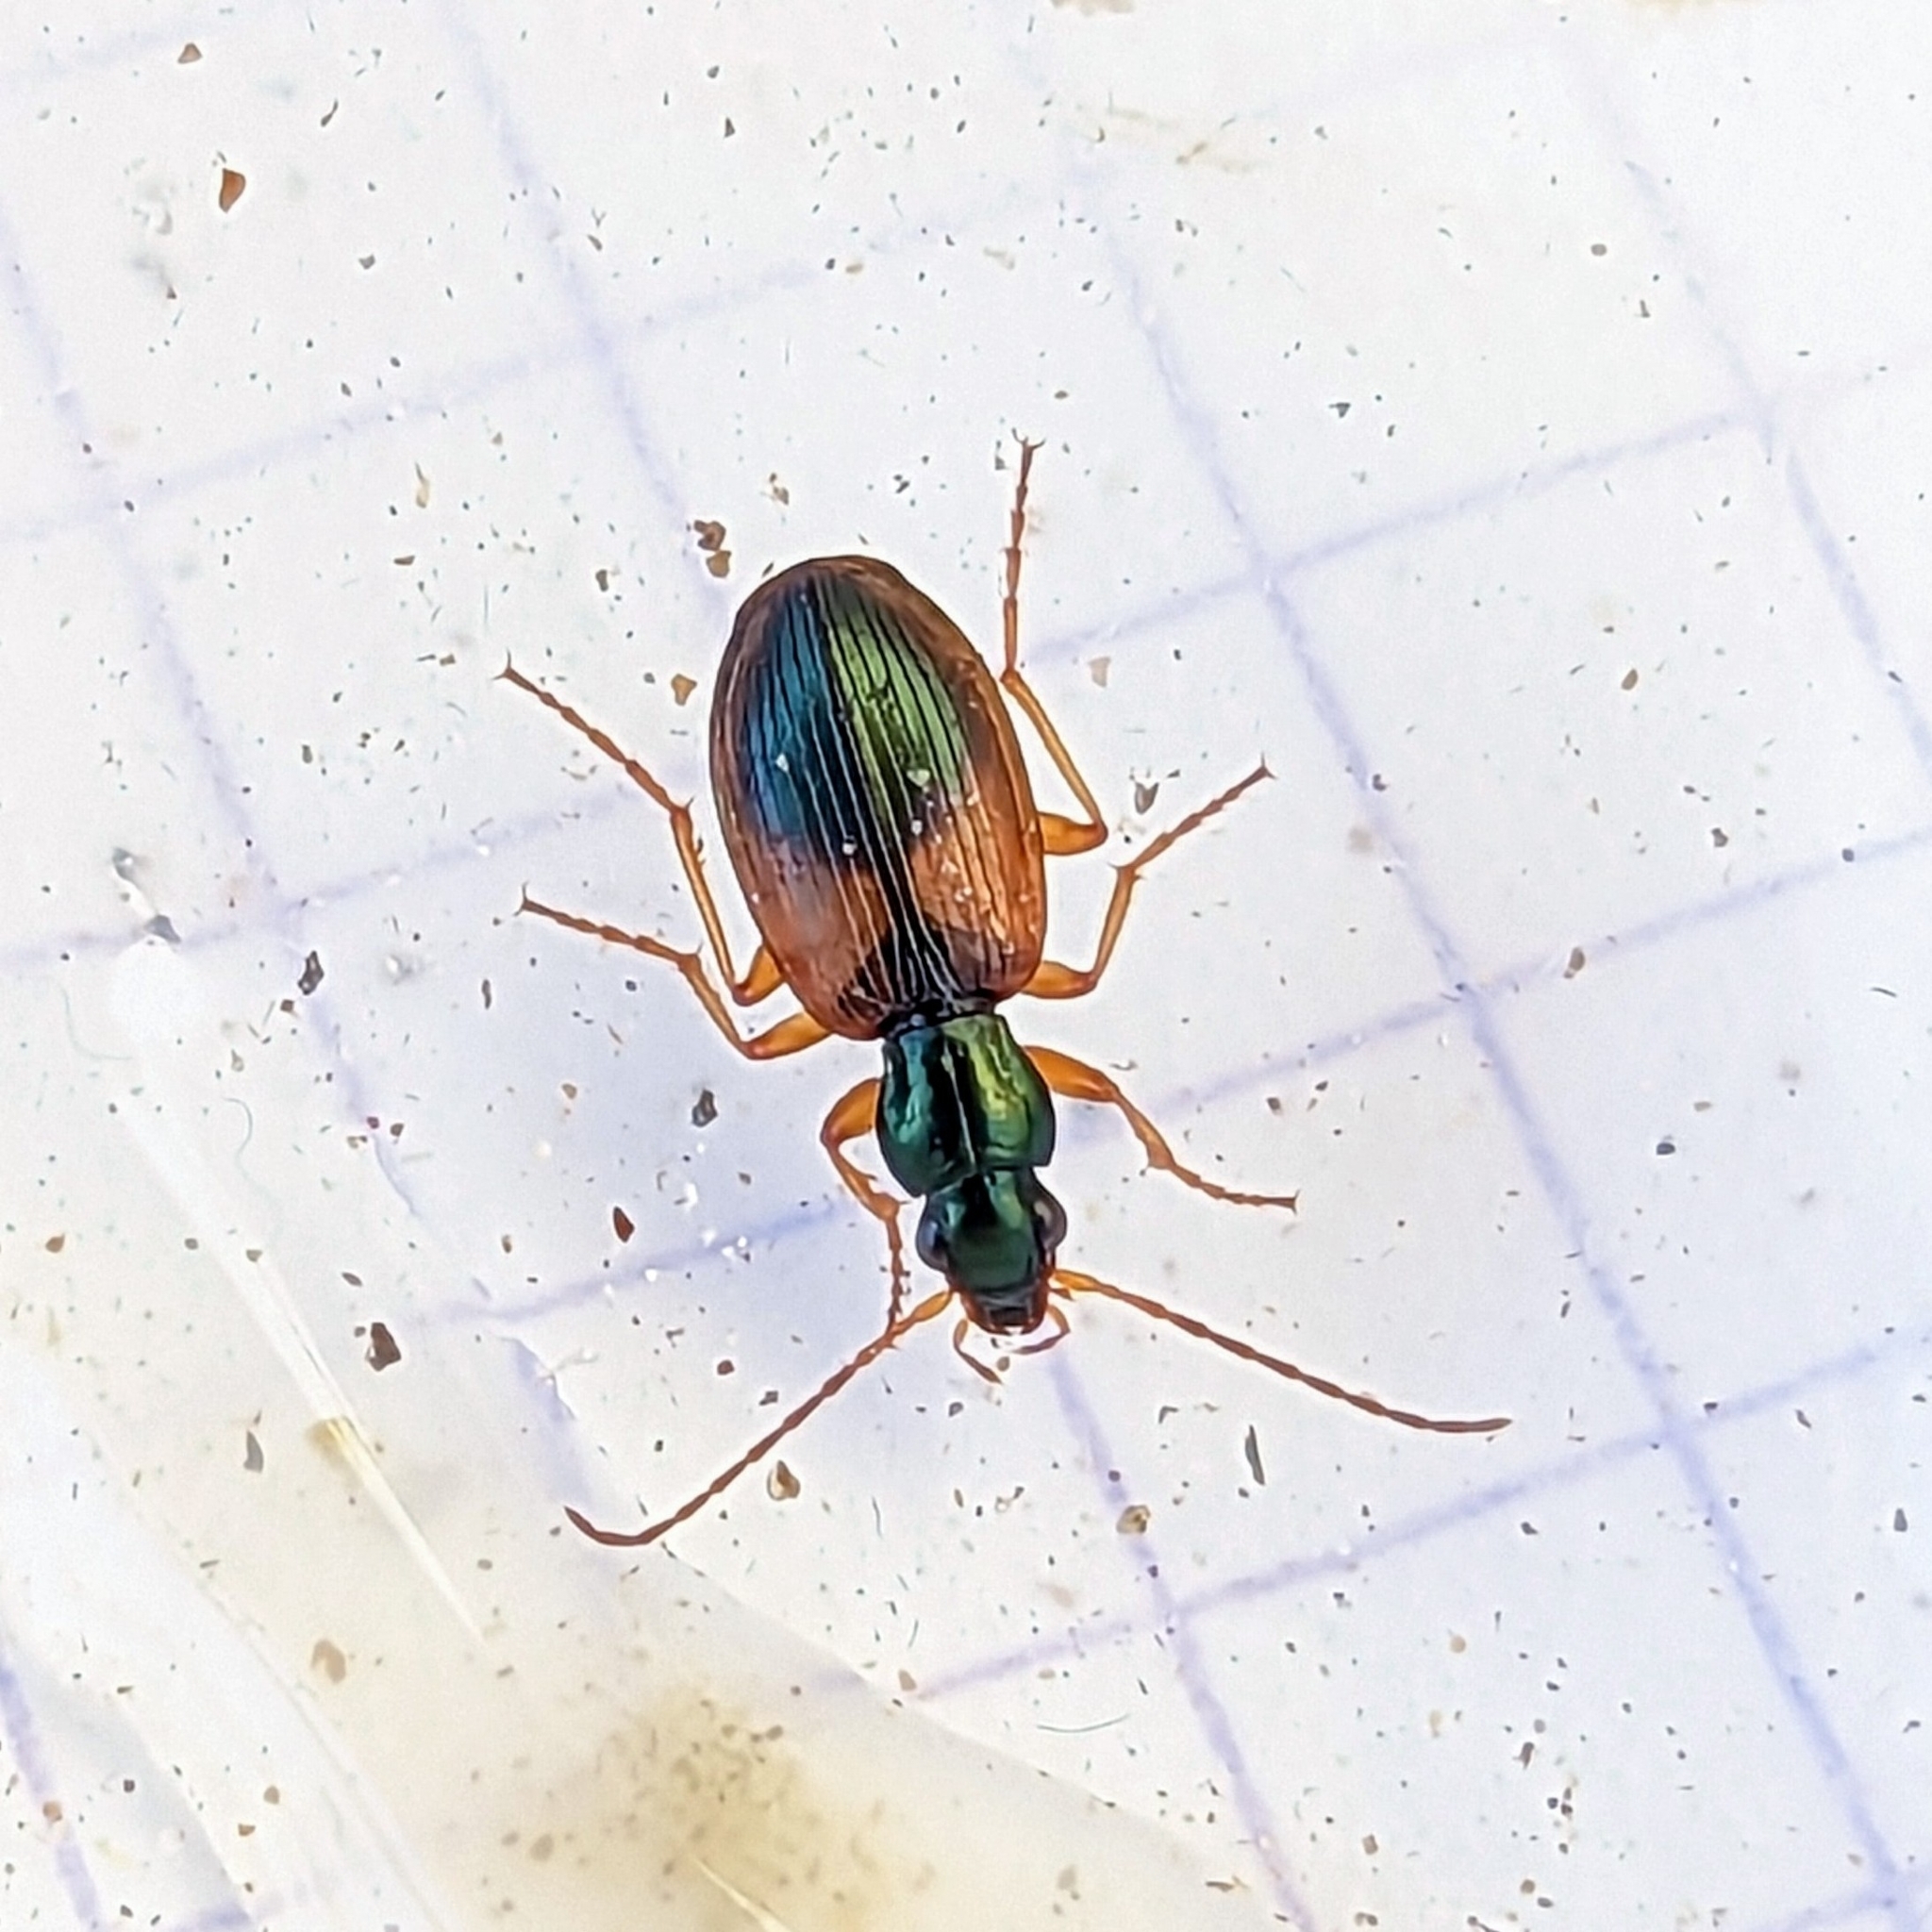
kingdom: Animalia
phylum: Arthropoda
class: Insecta
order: Coleoptera
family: Carabidae
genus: Anchomenus
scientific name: Anchomenus dorsalis
